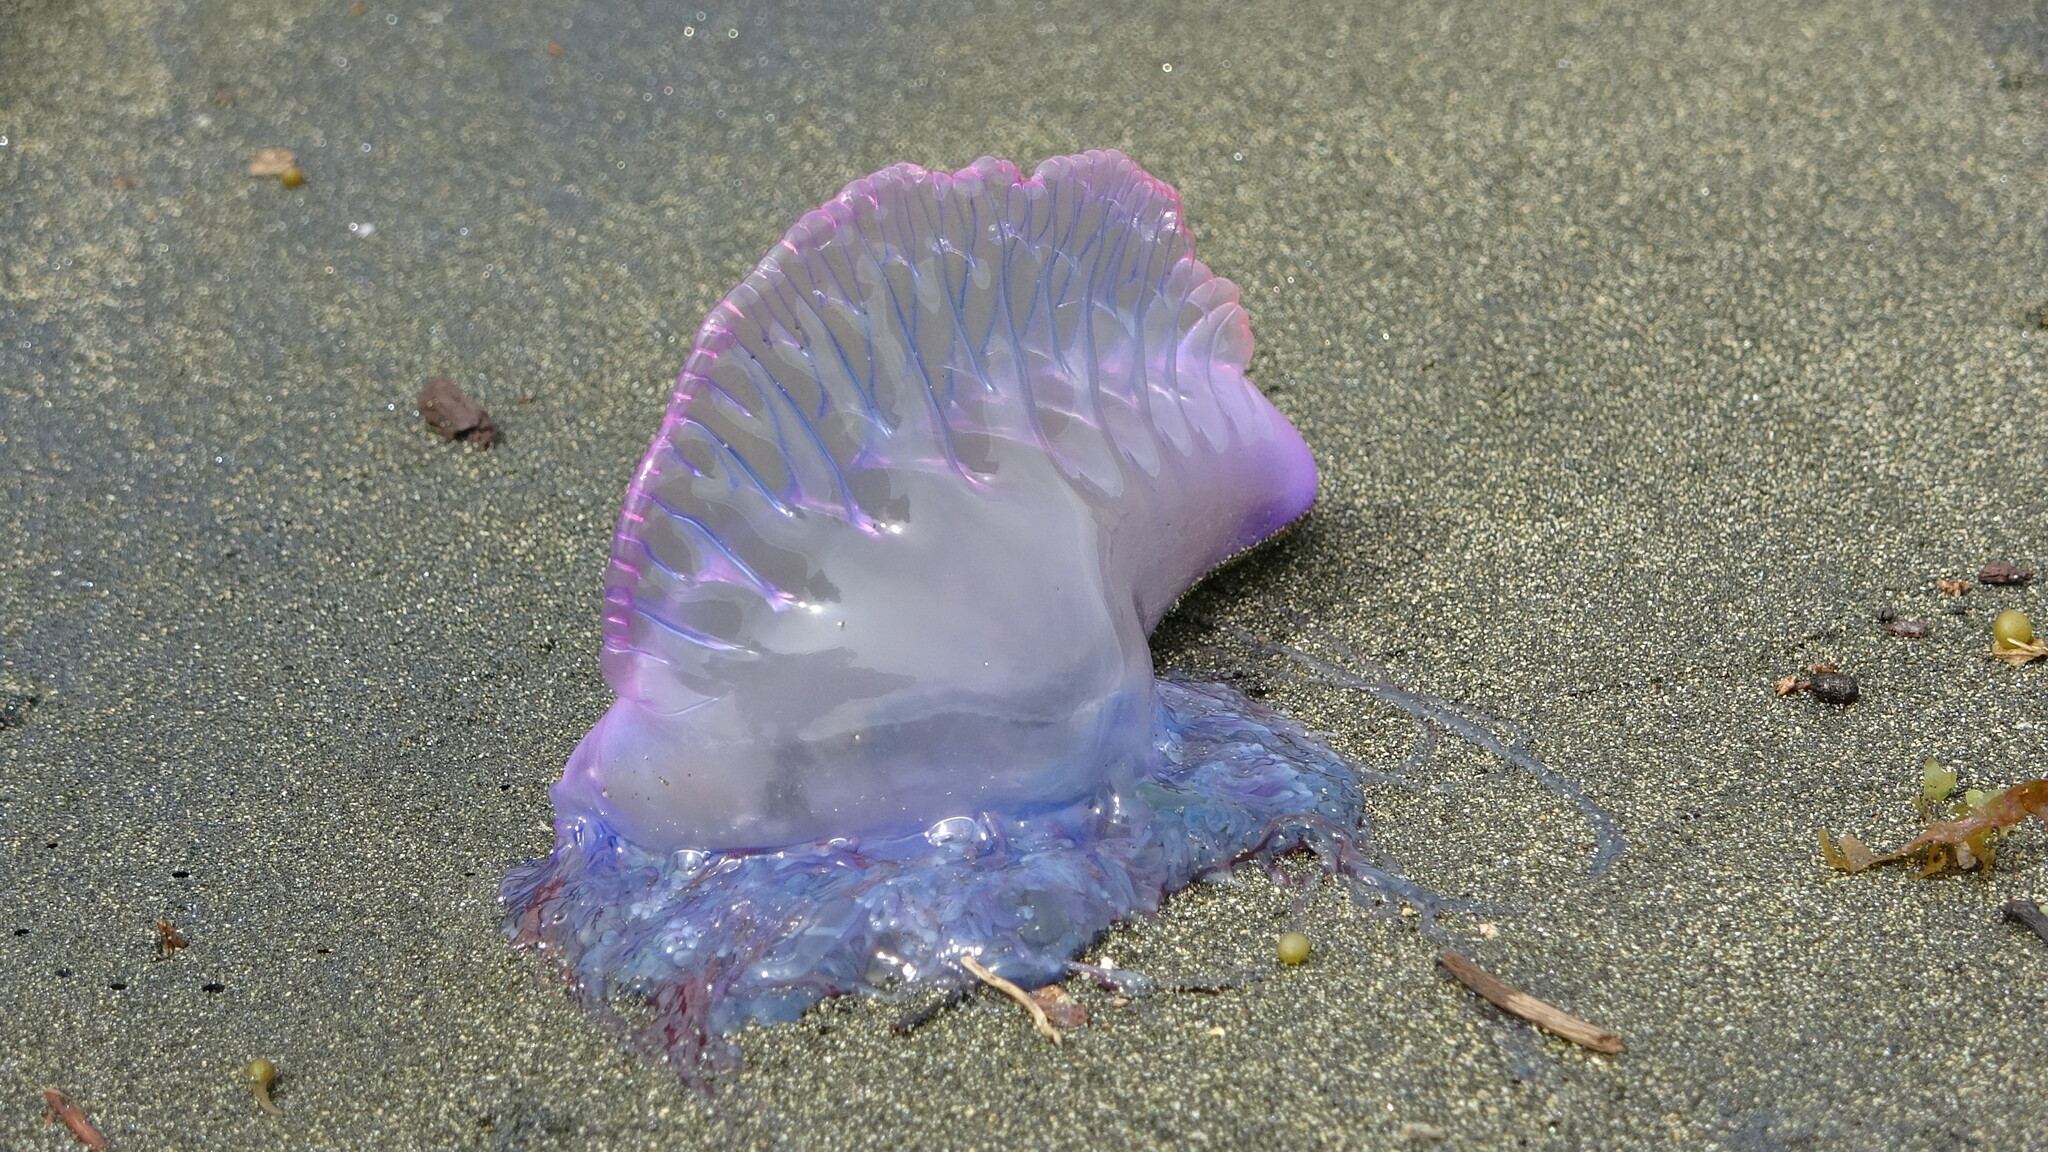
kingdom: Animalia
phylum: Cnidaria
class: Hydrozoa
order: Siphonophorae
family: Physaliidae
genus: Physalia
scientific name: Physalia physalis
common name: Portuguese man-of-war
